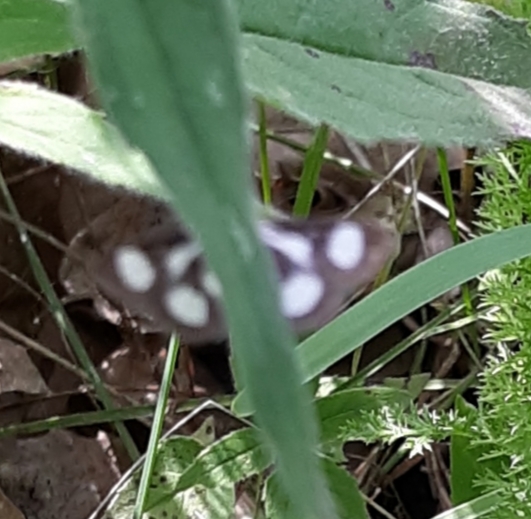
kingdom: Animalia
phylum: Arthropoda
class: Insecta
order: Lepidoptera
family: Crambidae
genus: Anania
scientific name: Anania funebris
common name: White-spotted sable moth
